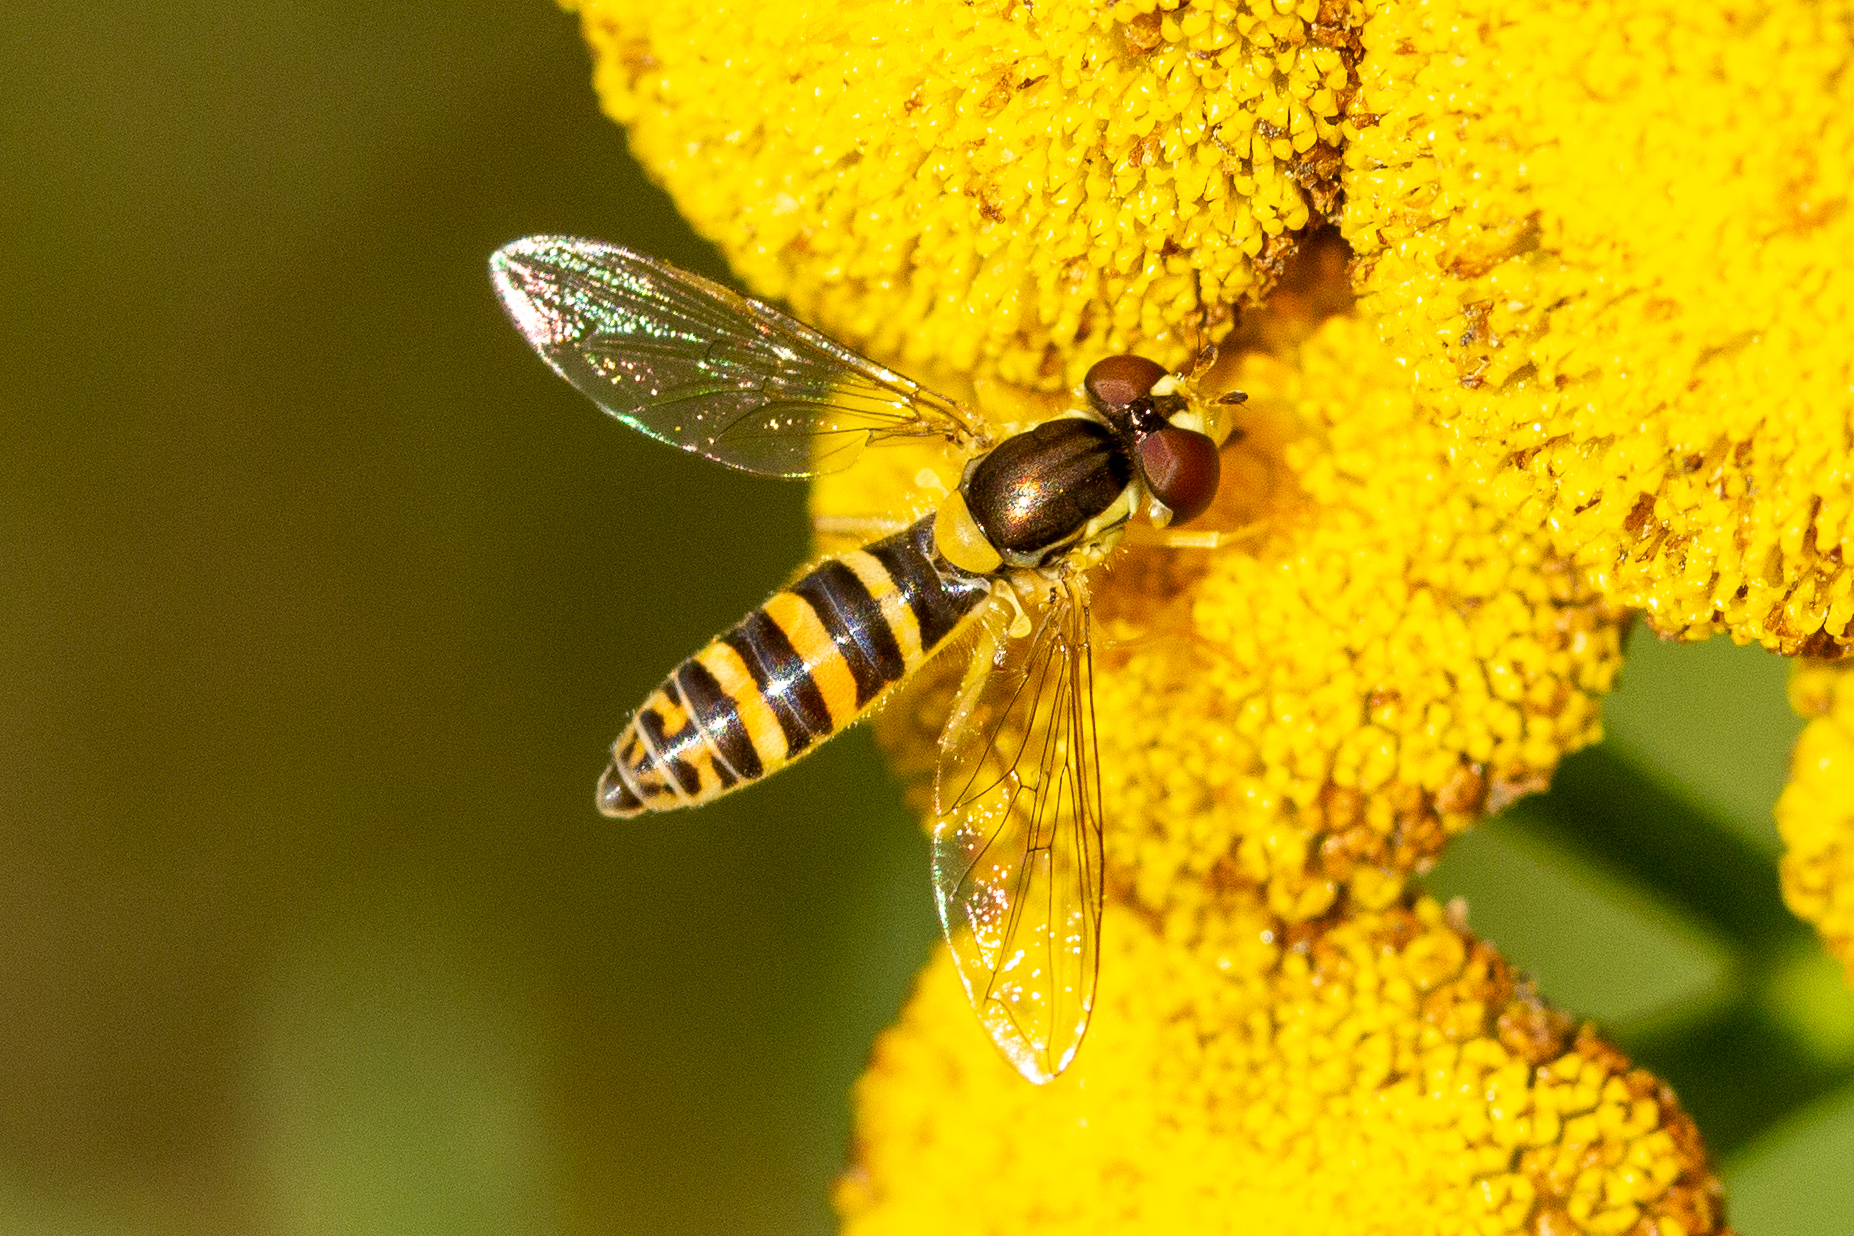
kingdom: Animalia
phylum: Arthropoda
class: Insecta
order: Diptera
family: Syrphidae
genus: Sphaerophoria
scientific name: Sphaerophoria
